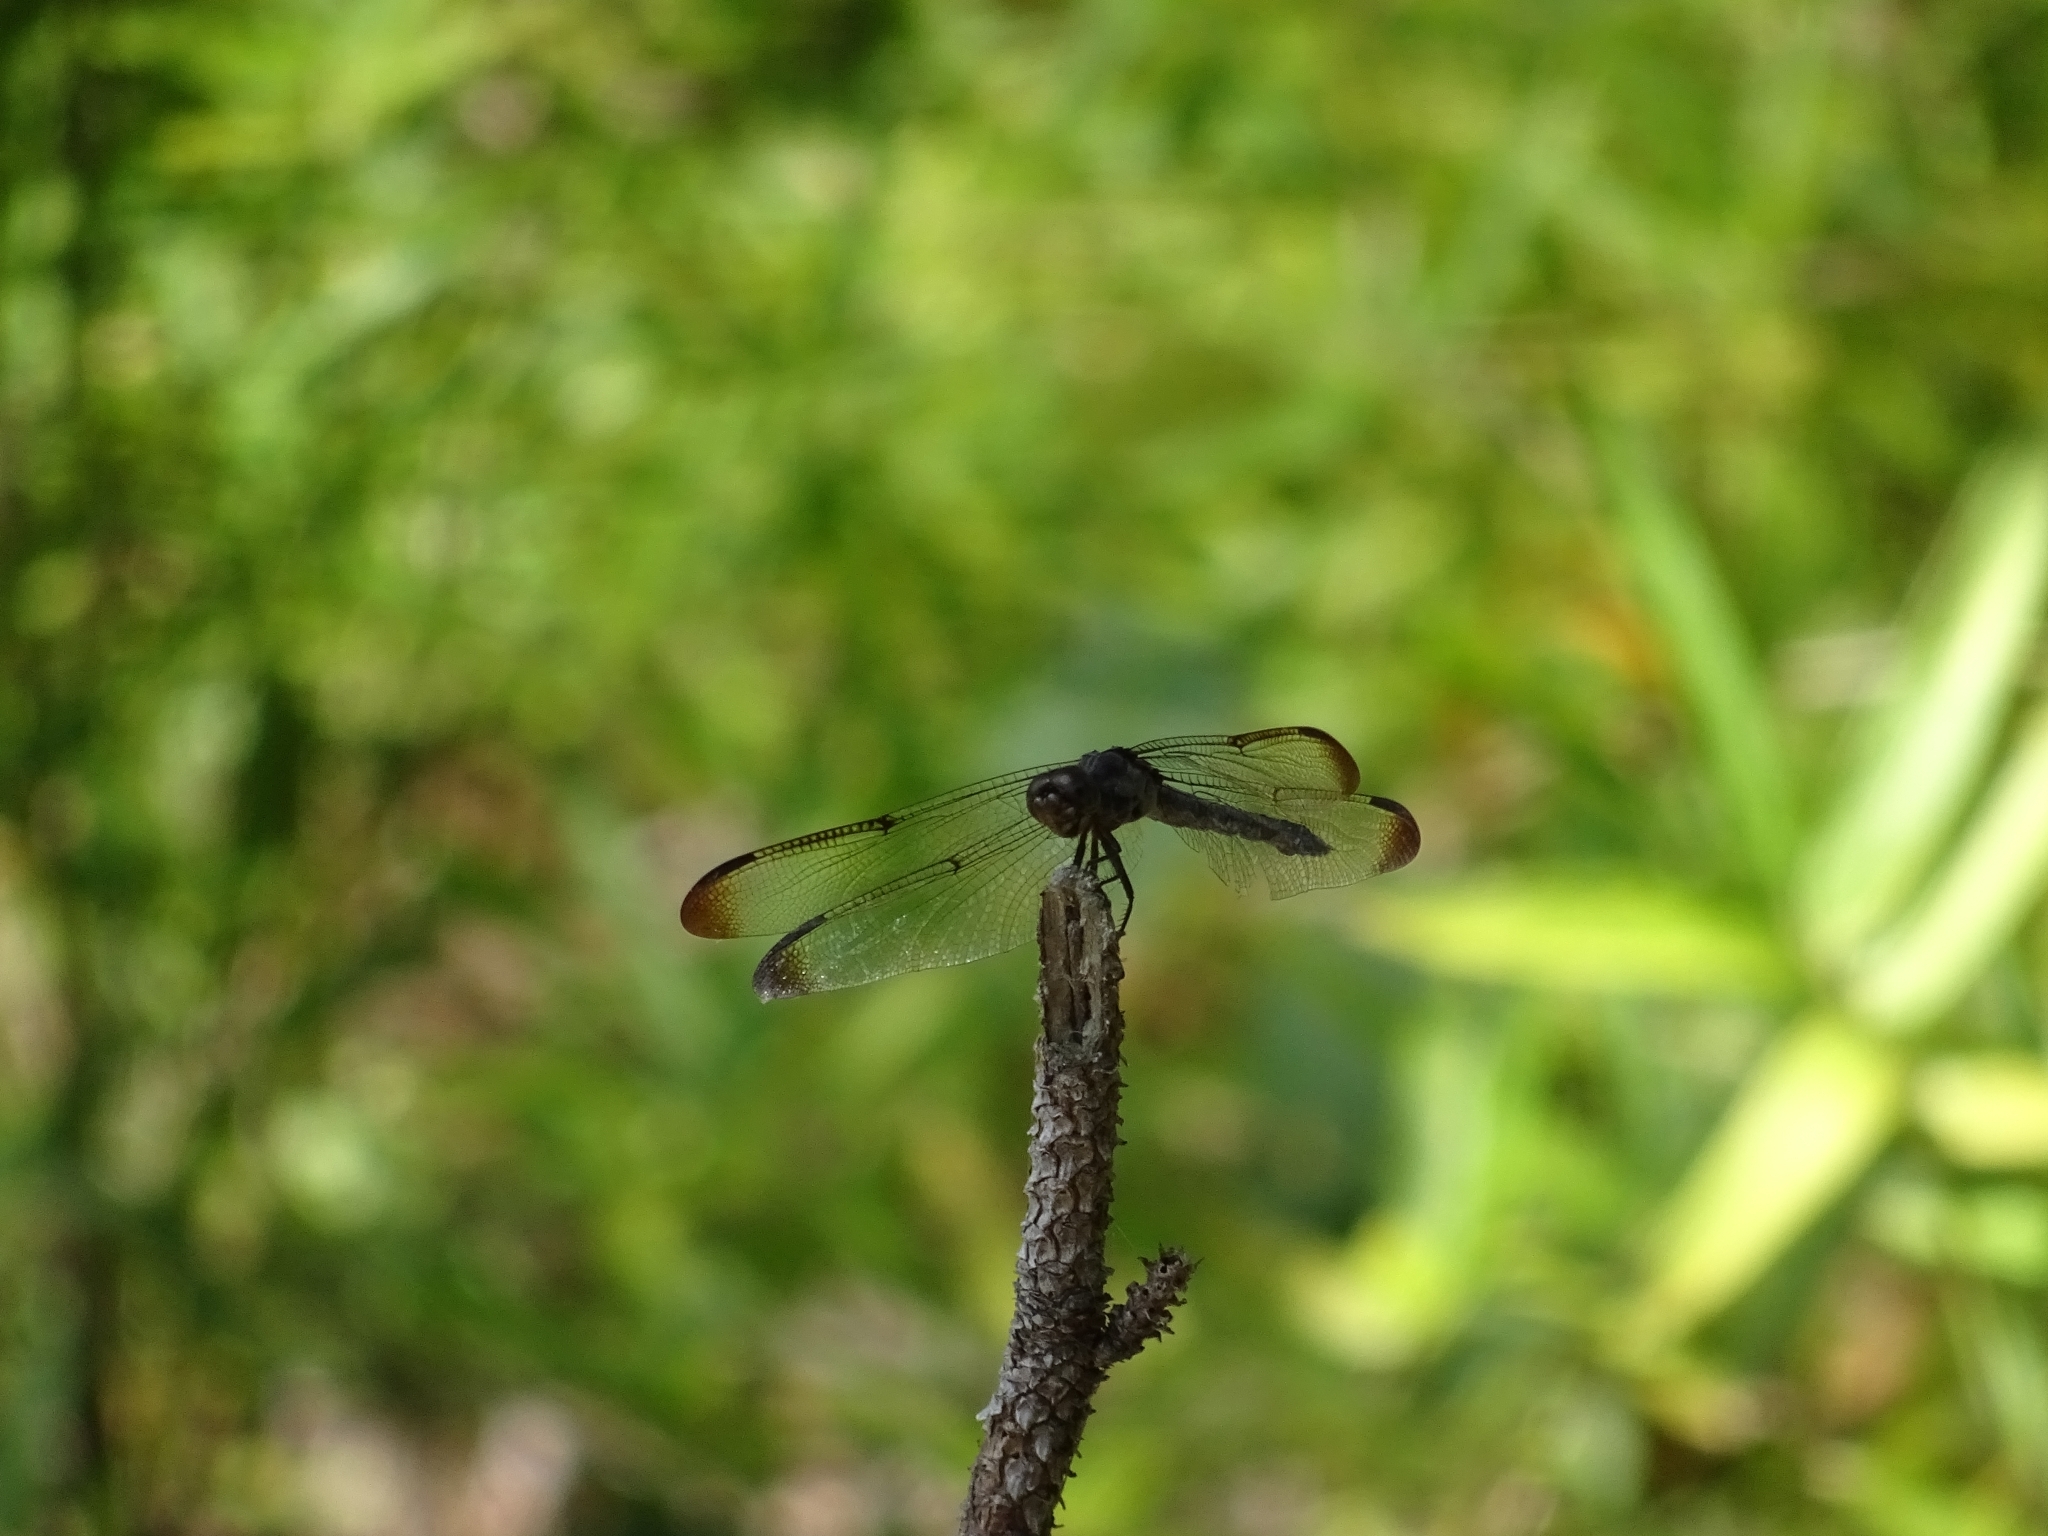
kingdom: Animalia
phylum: Arthropoda
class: Insecta
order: Odonata
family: Libellulidae
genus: Libellula
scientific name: Libellula incesta
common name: Slaty skimmer
